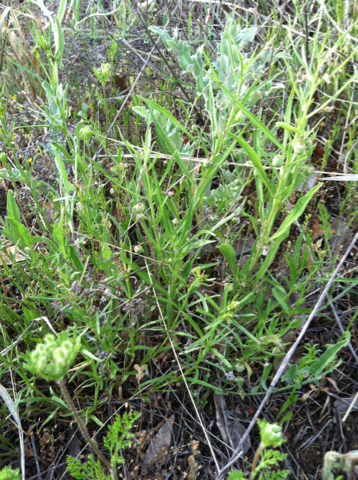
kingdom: Plantae
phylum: Tracheophyta
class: Magnoliopsida
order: Malpighiales
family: Violaceae
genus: Pombalia
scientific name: Pombalia verticillata
